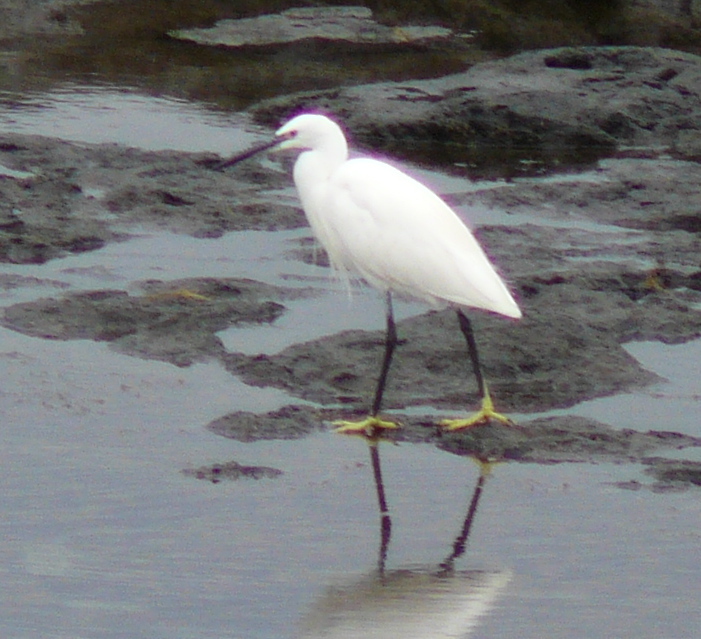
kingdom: Animalia
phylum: Chordata
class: Aves
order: Pelecaniformes
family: Ardeidae
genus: Egretta
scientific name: Egretta garzetta
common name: Little egret
